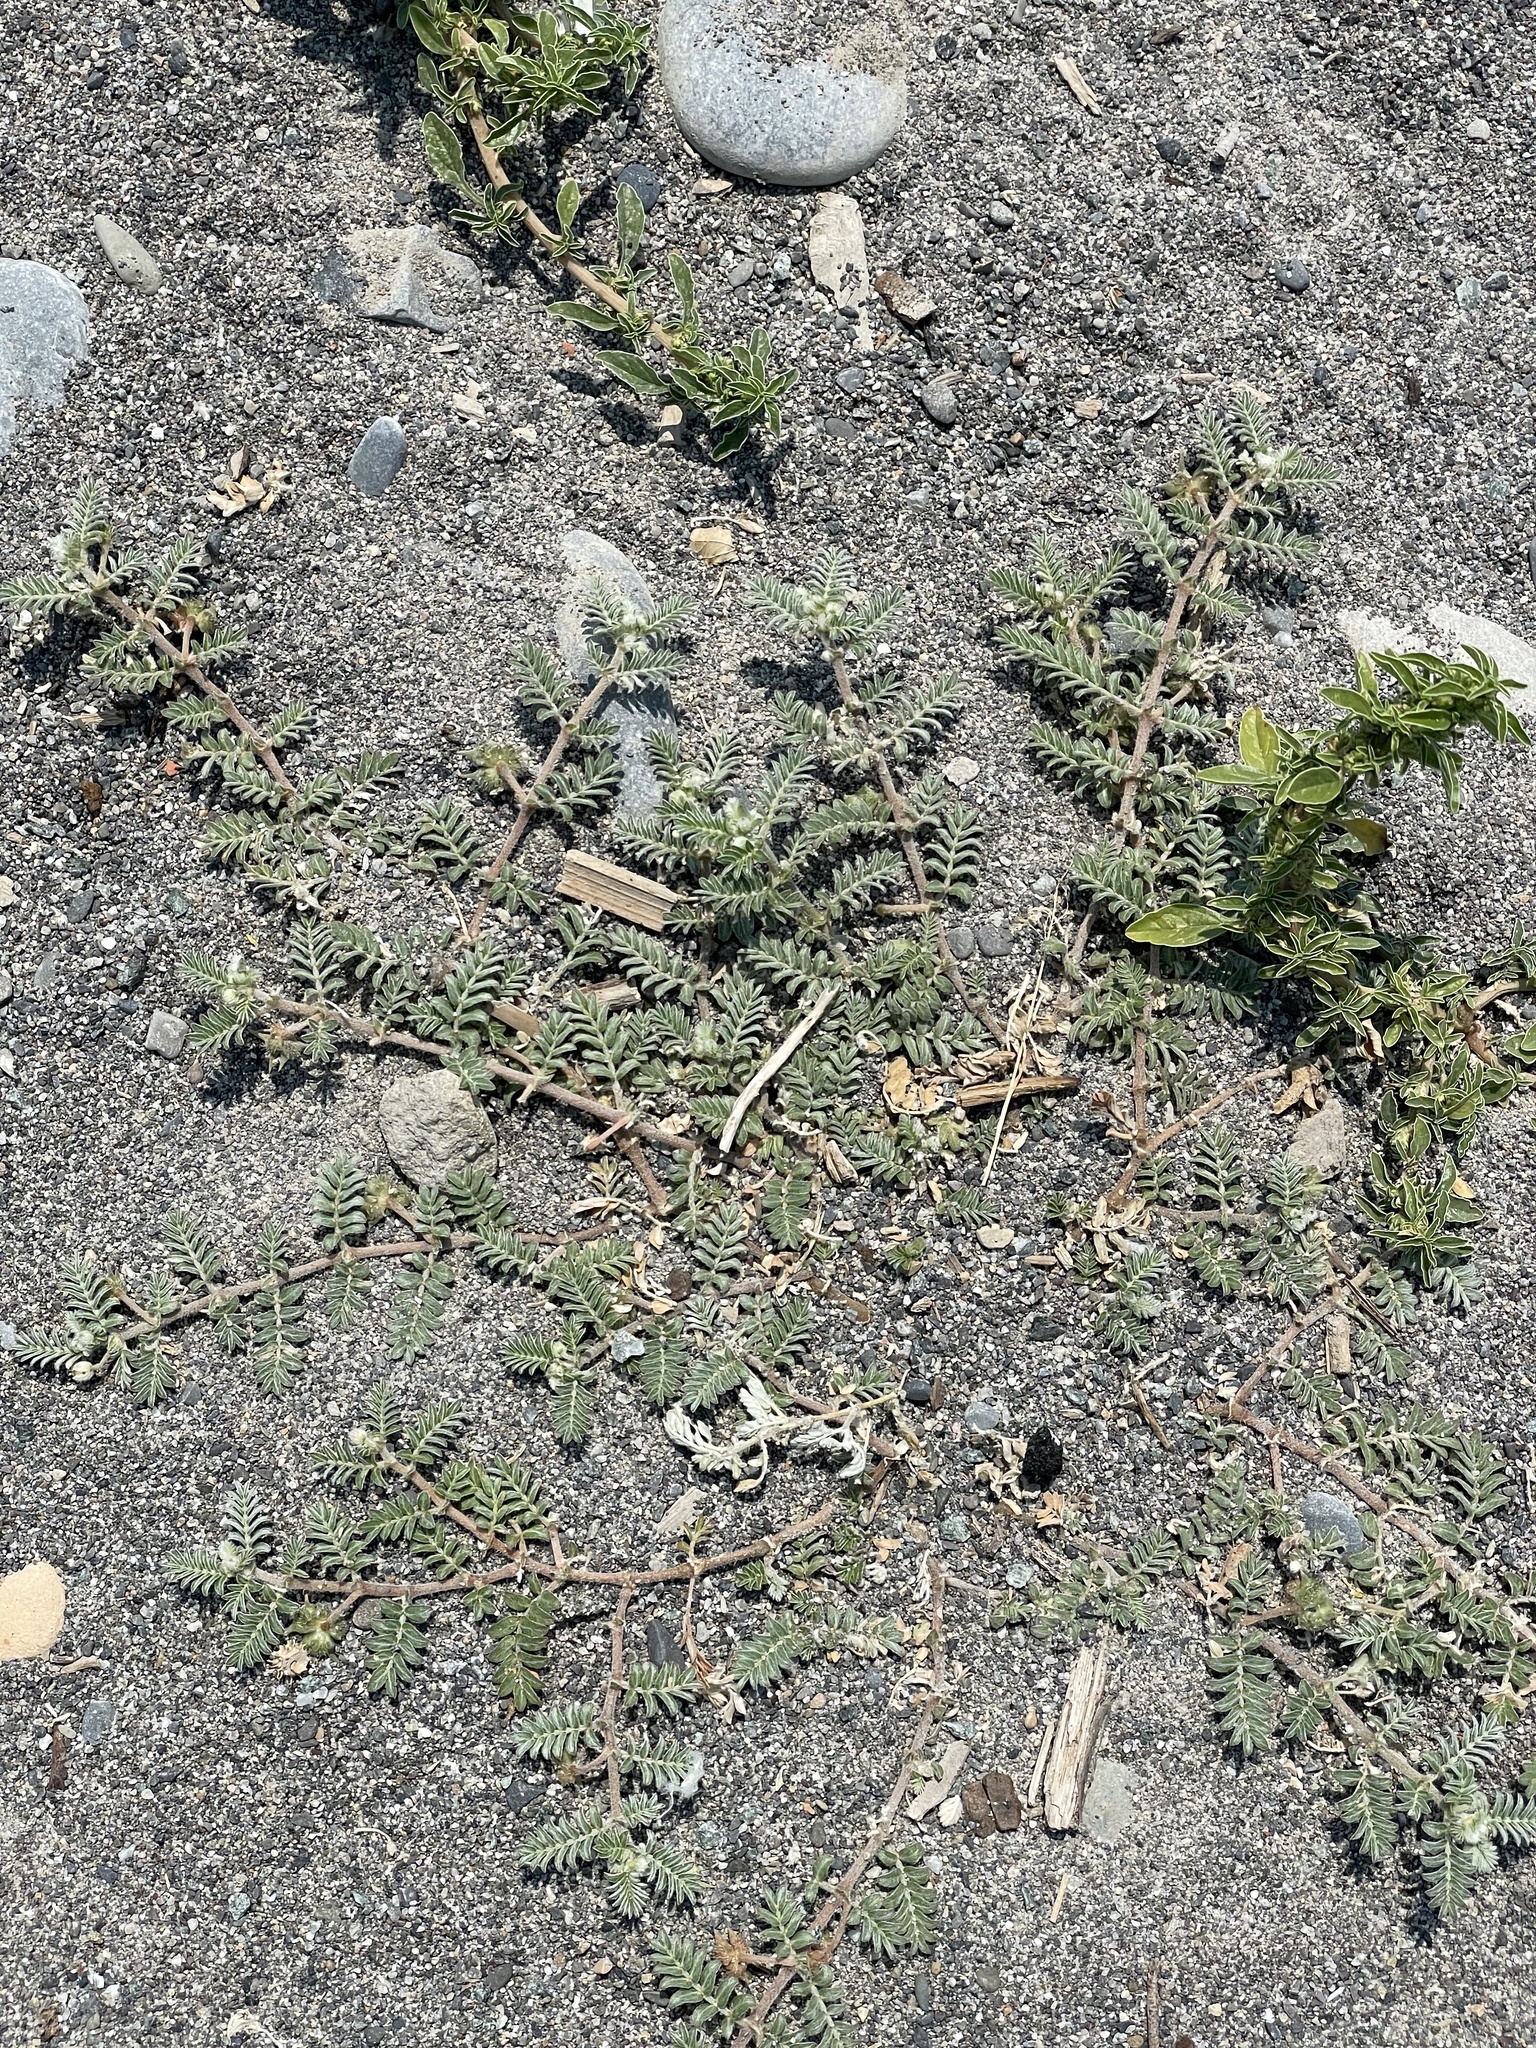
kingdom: Plantae
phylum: Tracheophyta
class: Magnoliopsida
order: Zygophyllales
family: Zygophyllaceae
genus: Tribulus
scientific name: Tribulus terrestris
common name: Puncturevine
